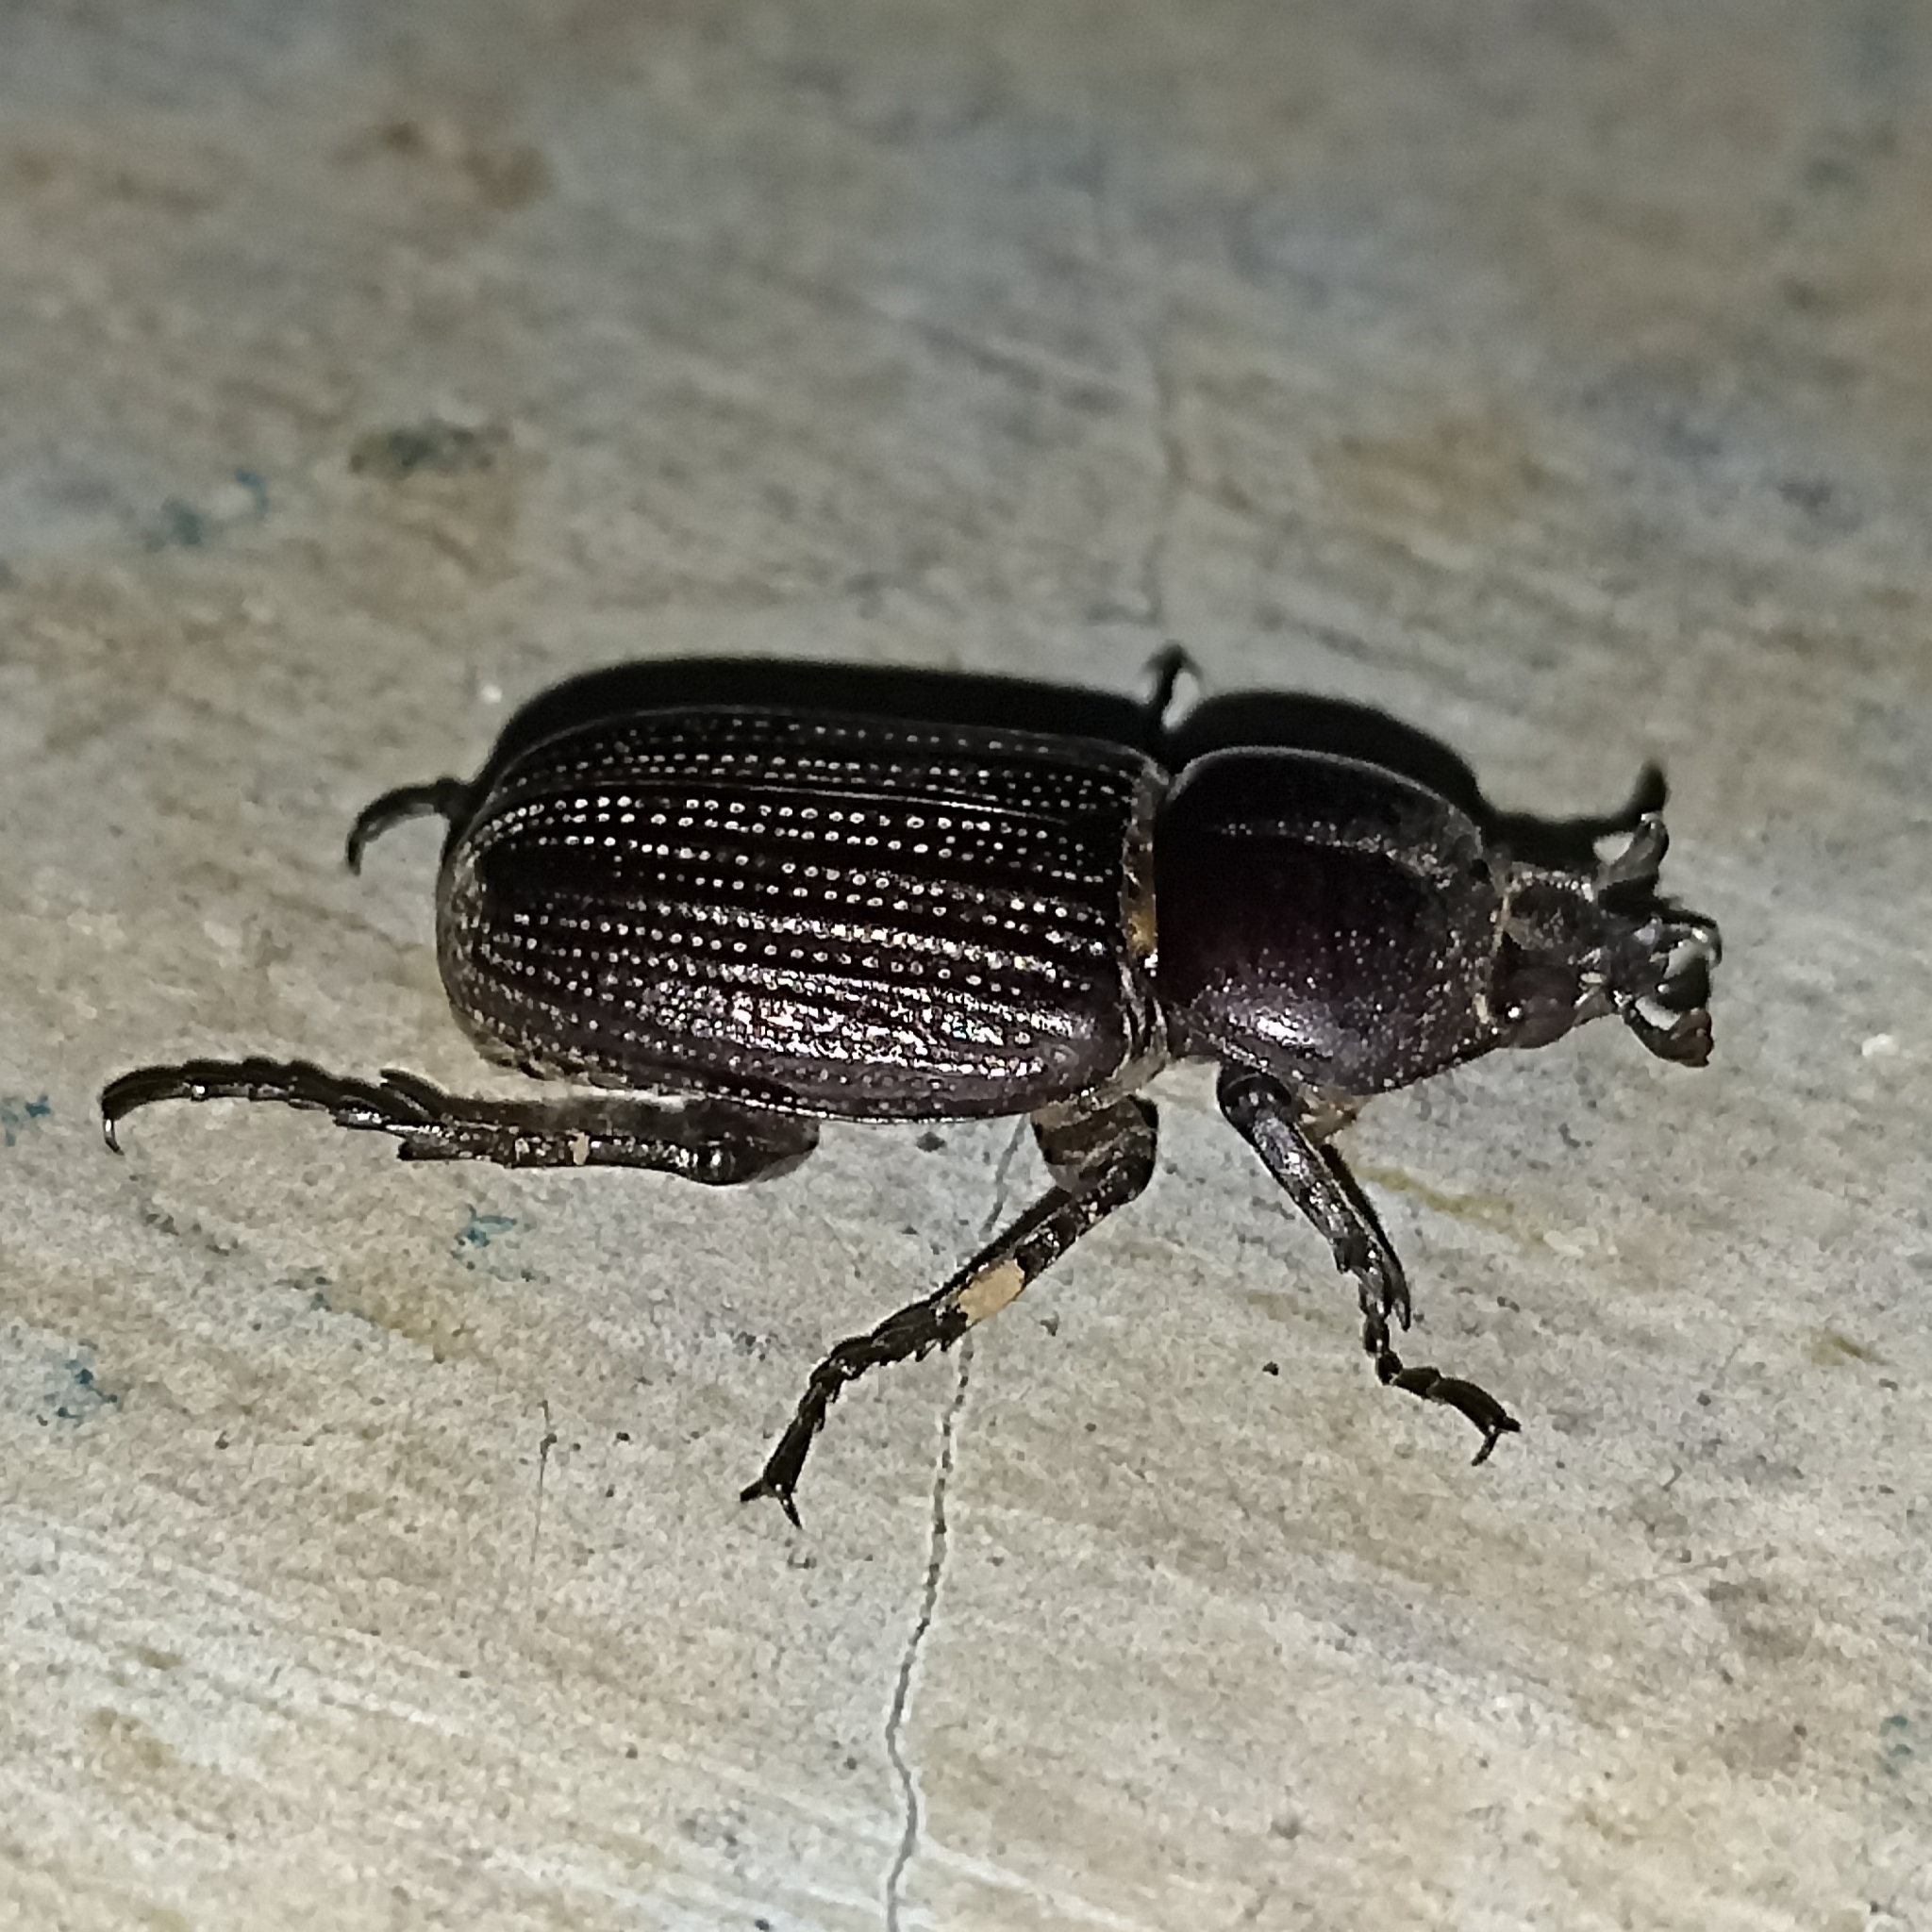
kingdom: Animalia
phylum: Arthropoda
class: Insecta
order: Coleoptera
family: Scarabaeidae
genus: Phileurus
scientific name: Phileurus valgus
